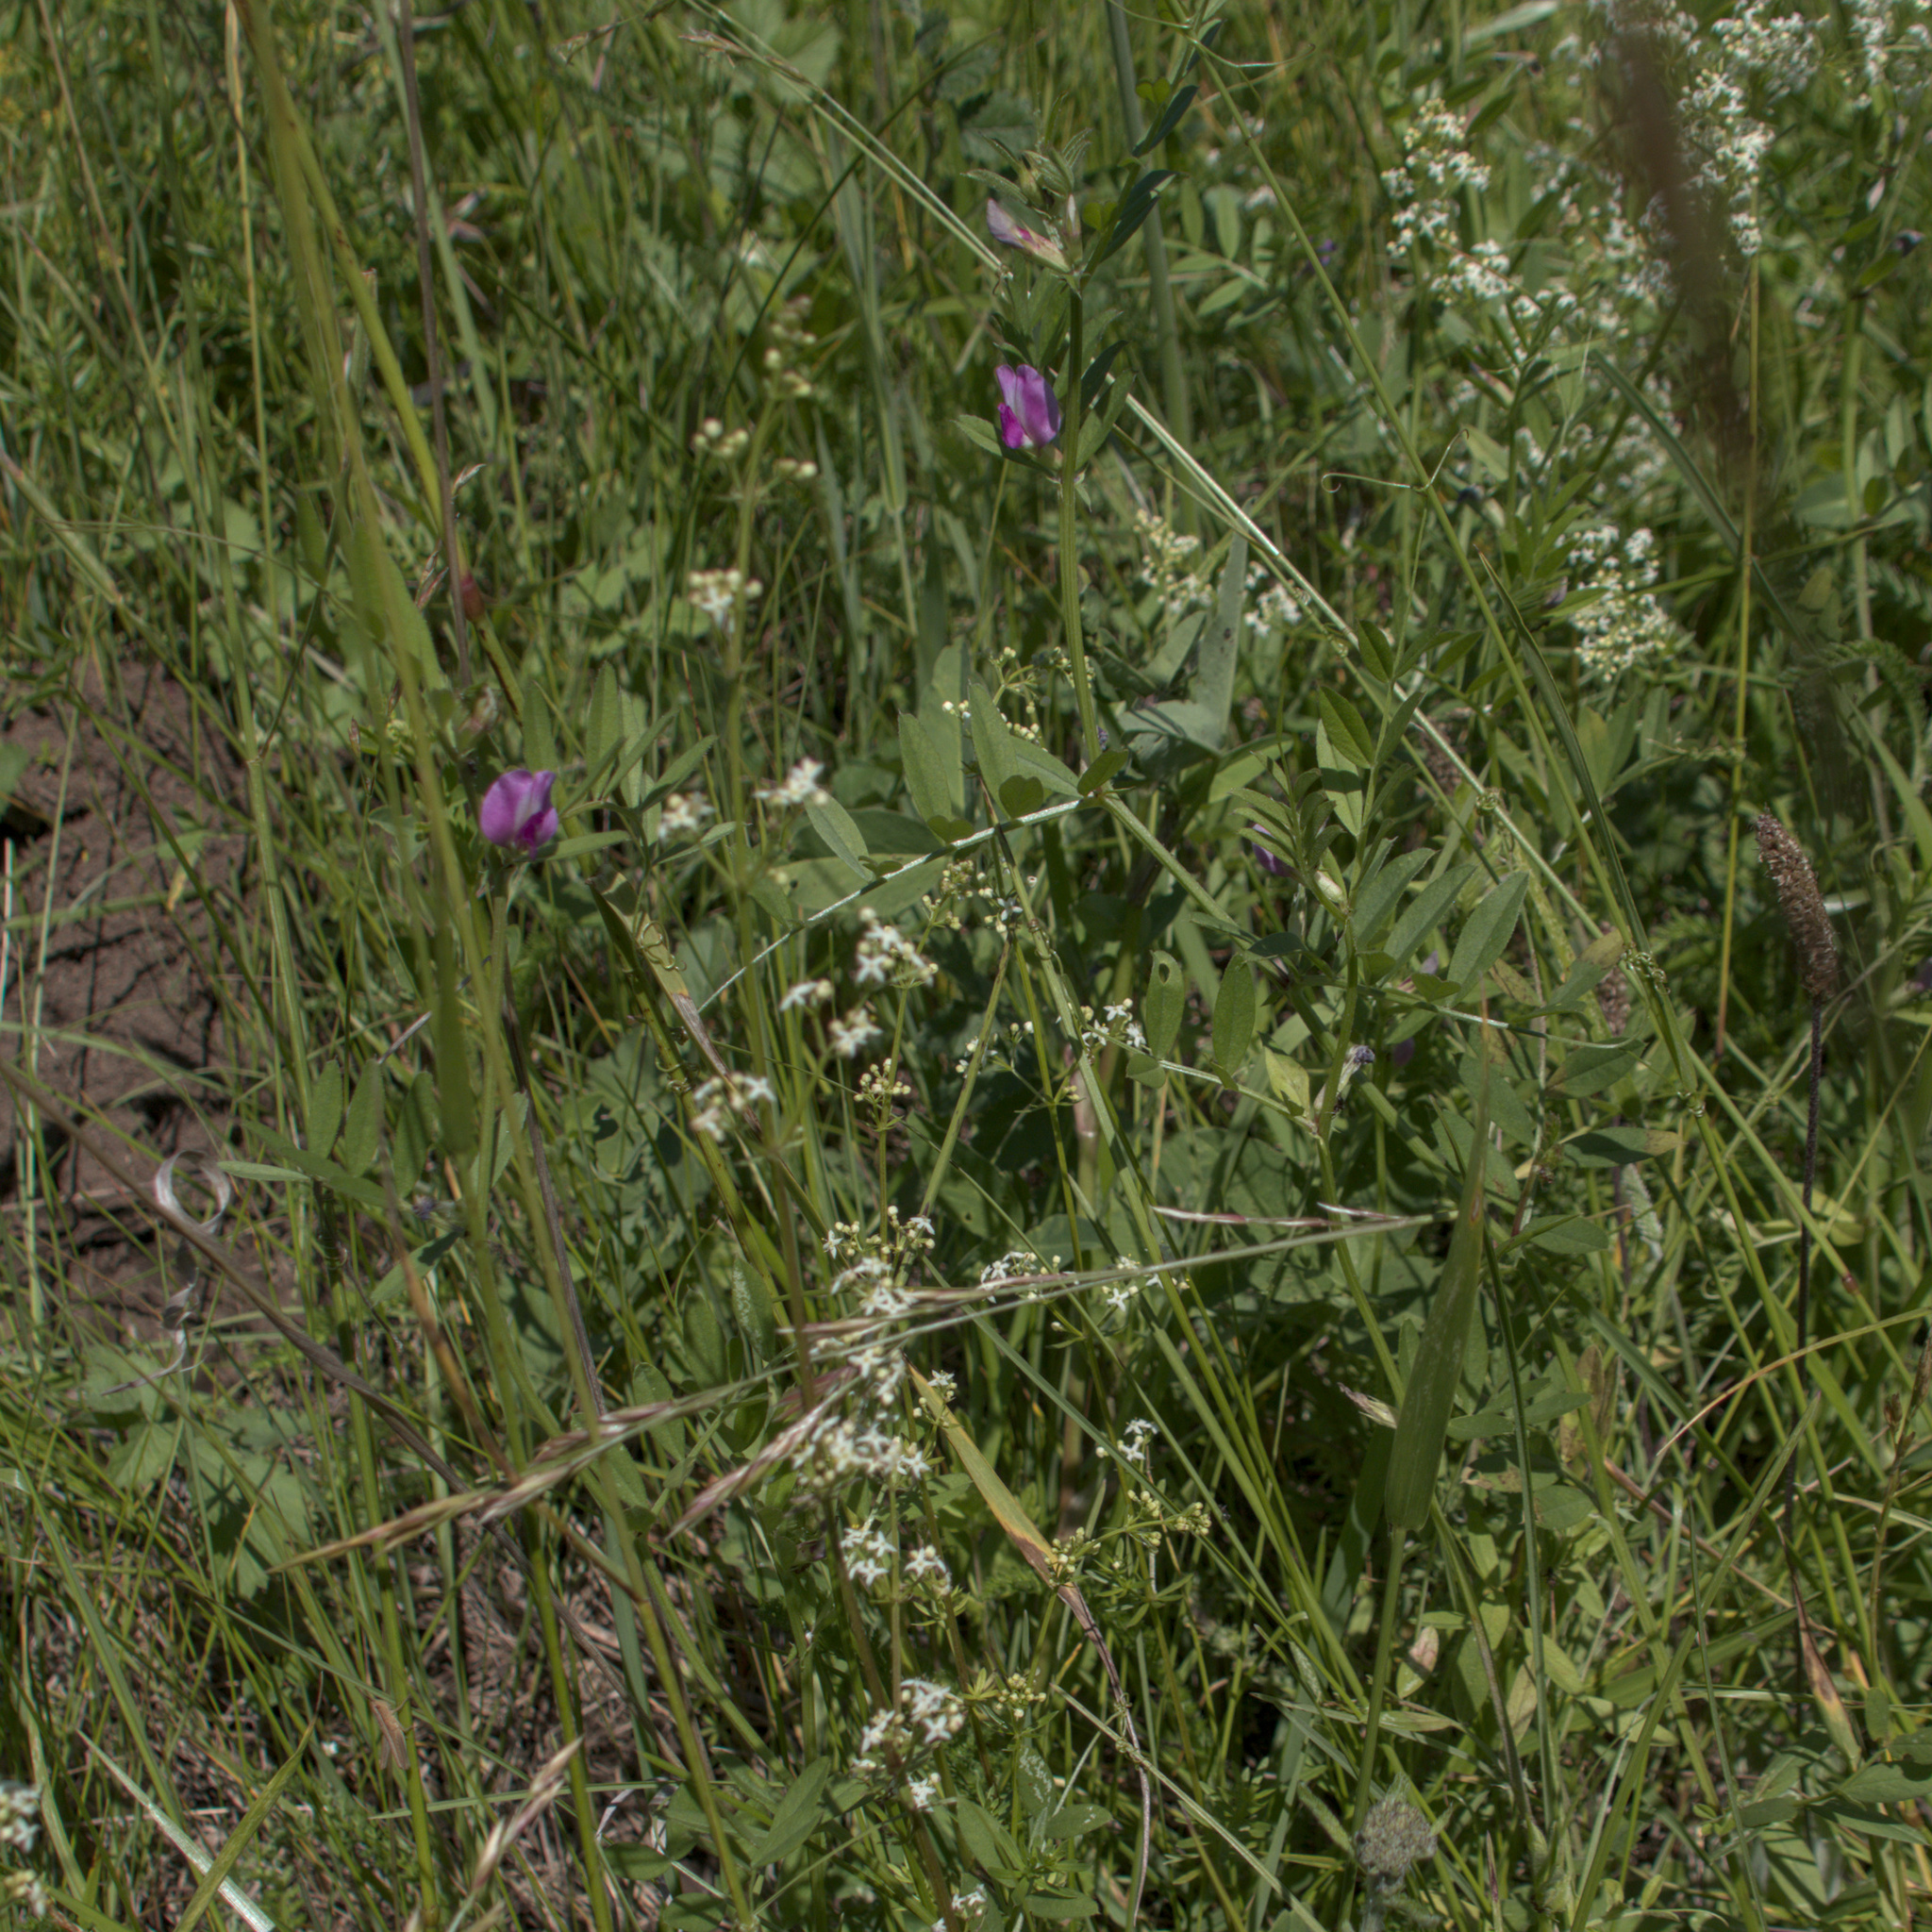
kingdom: Plantae
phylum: Tracheophyta
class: Magnoliopsida
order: Fabales
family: Fabaceae
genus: Vicia
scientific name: Vicia sativa
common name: Garden vetch
